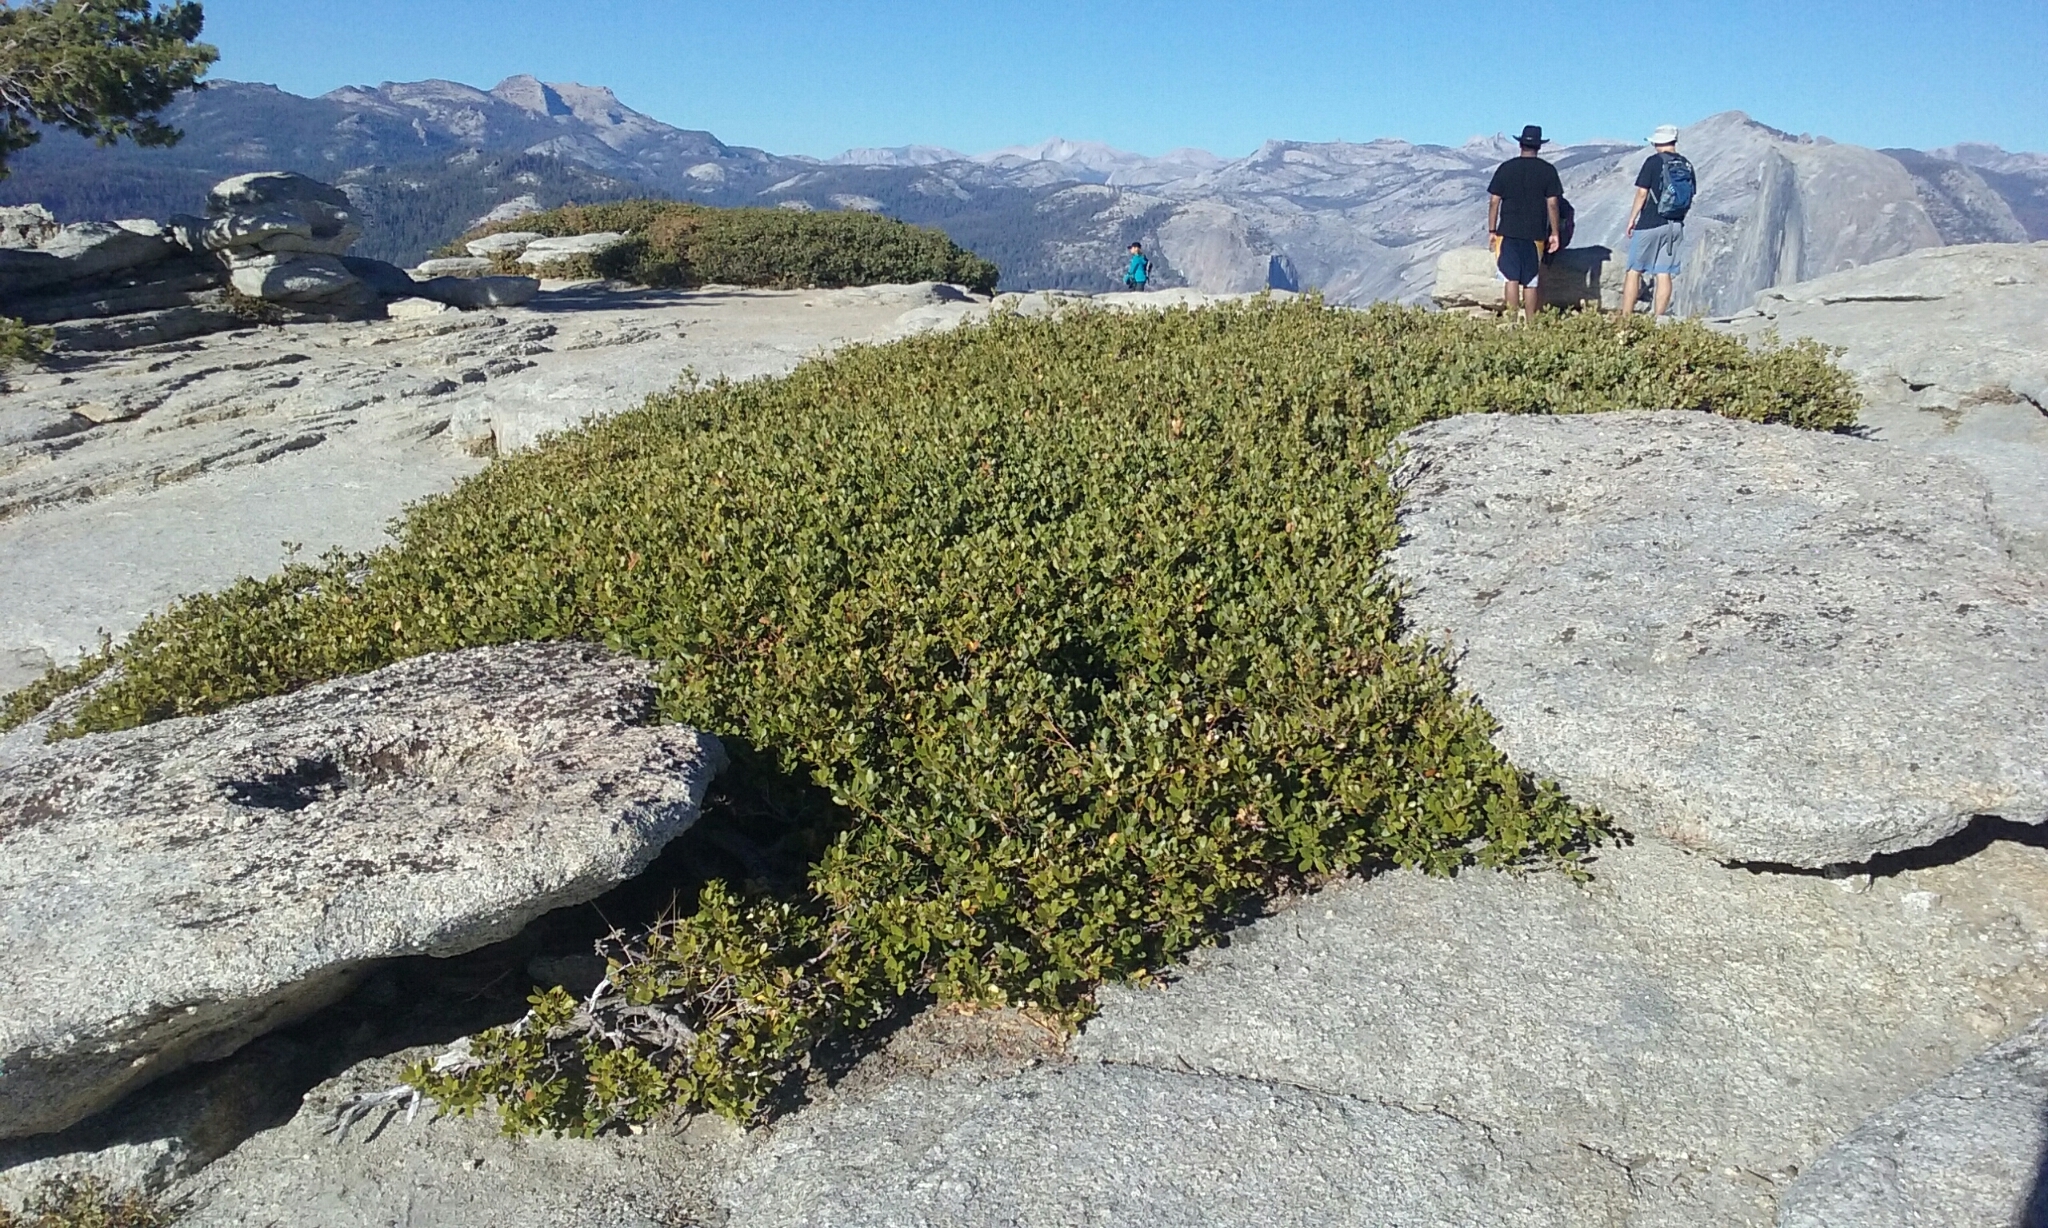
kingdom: Plantae
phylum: Tracheophyta
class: Magnoliopsida
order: Fagales
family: Fagaceae
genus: Quercus
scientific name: Quercus vacciniifolia
